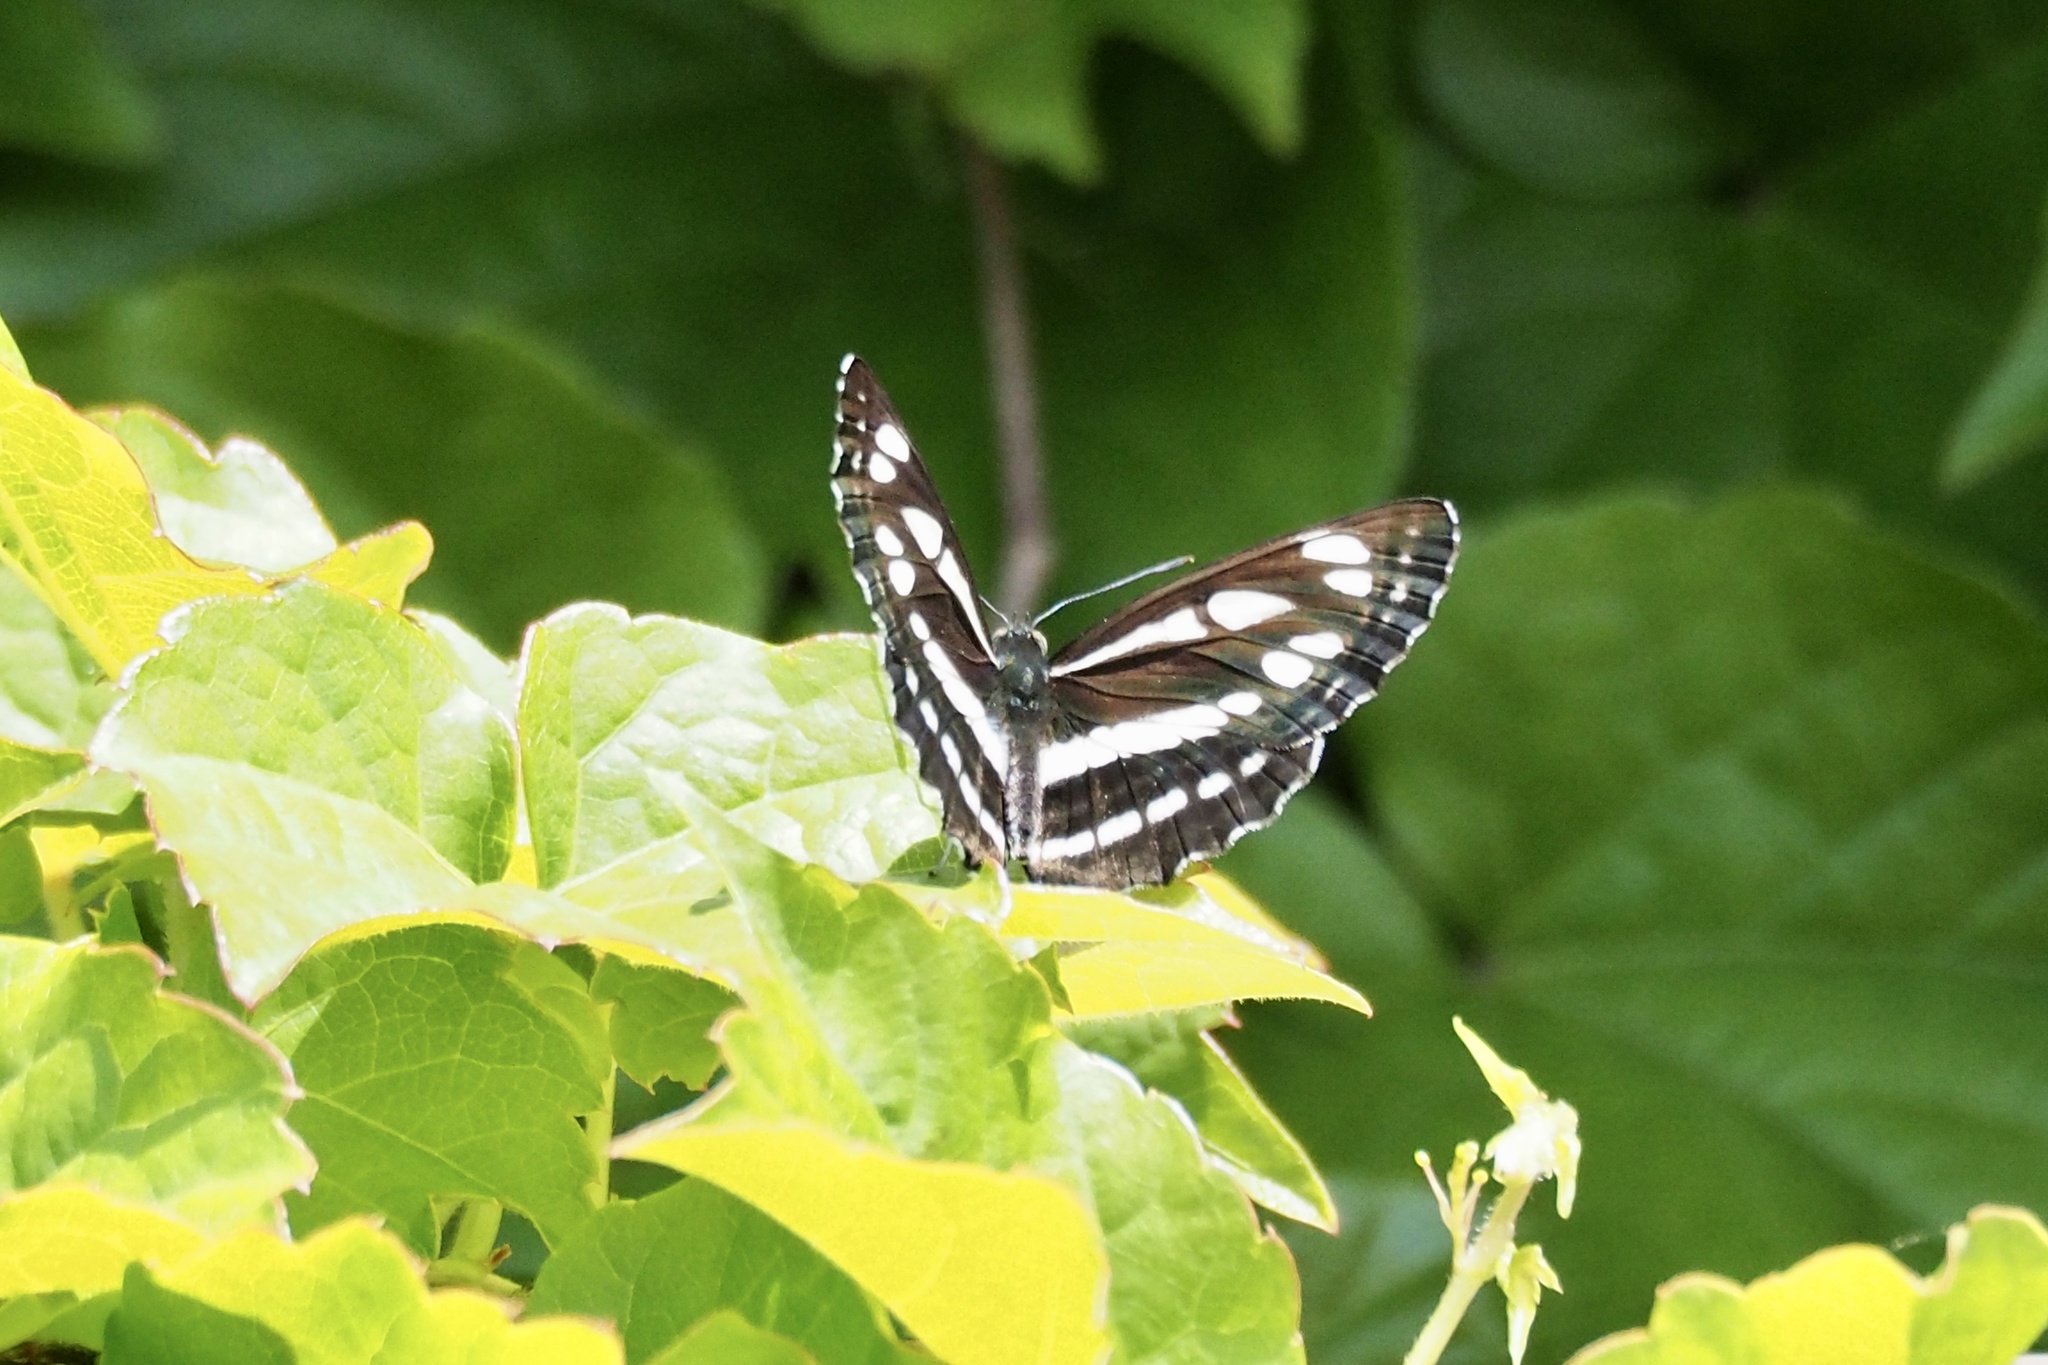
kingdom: Animalia
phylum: Arthropoda
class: Insecta
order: Lepidoptera
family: Nymphalidae
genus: Neptis
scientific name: Neptis sappho
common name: Common glider
